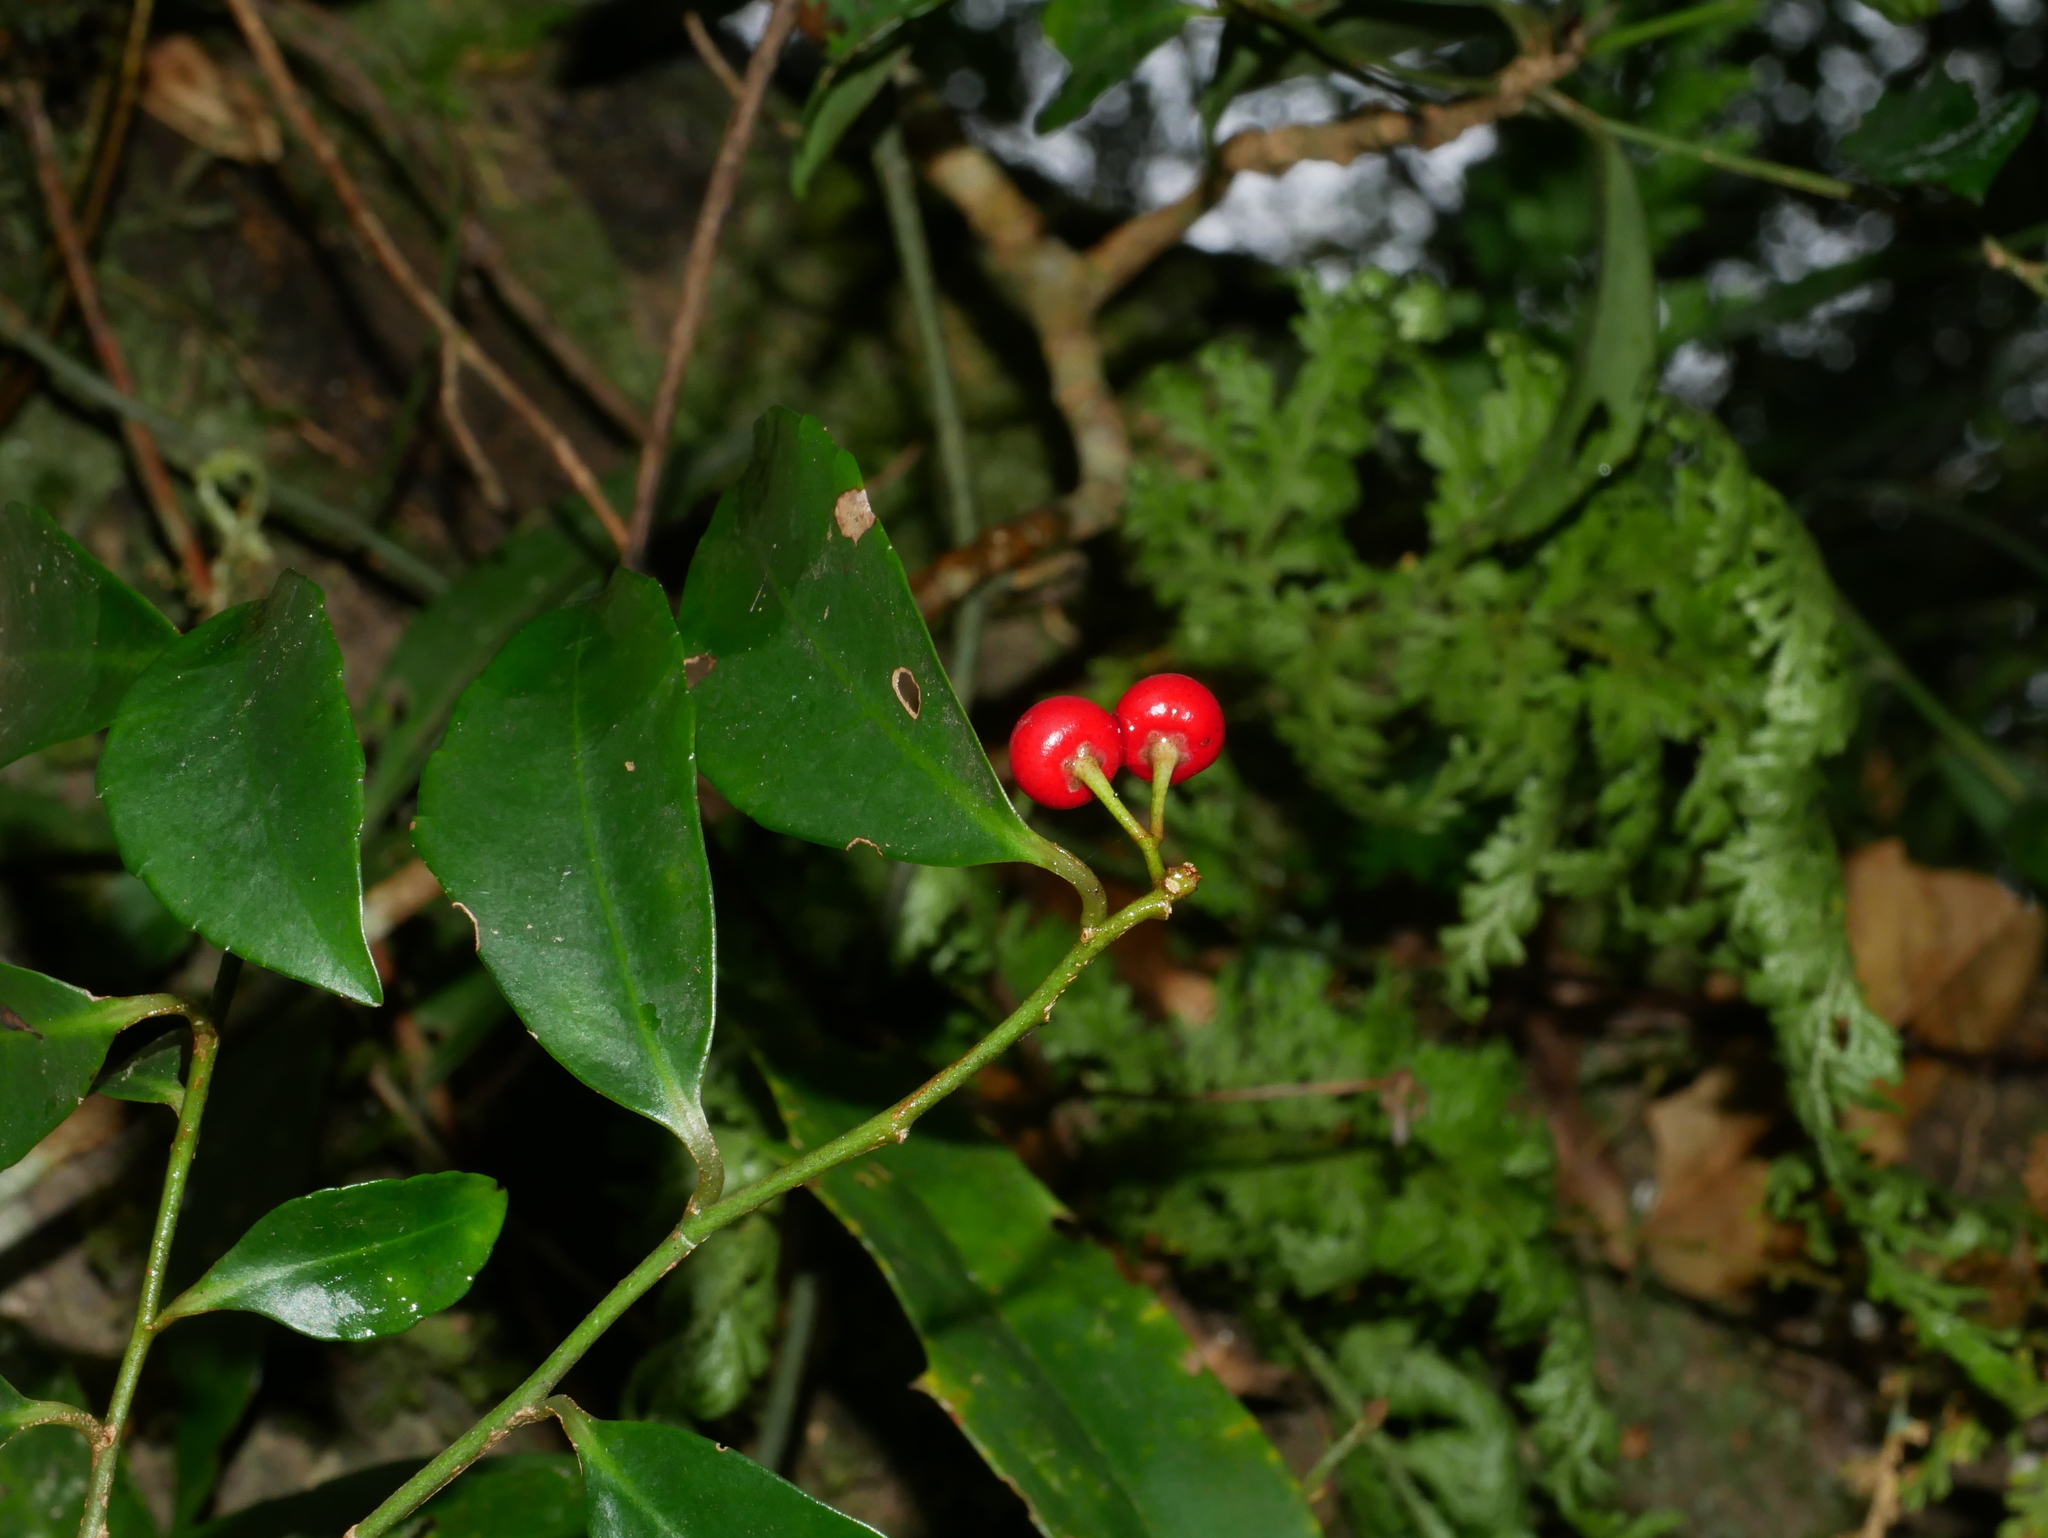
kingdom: Plantae
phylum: Tracheophyta
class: Magnoliopsida
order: Ericales
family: Primulaceae
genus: Ardisia
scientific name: Ardisia cornudentata
